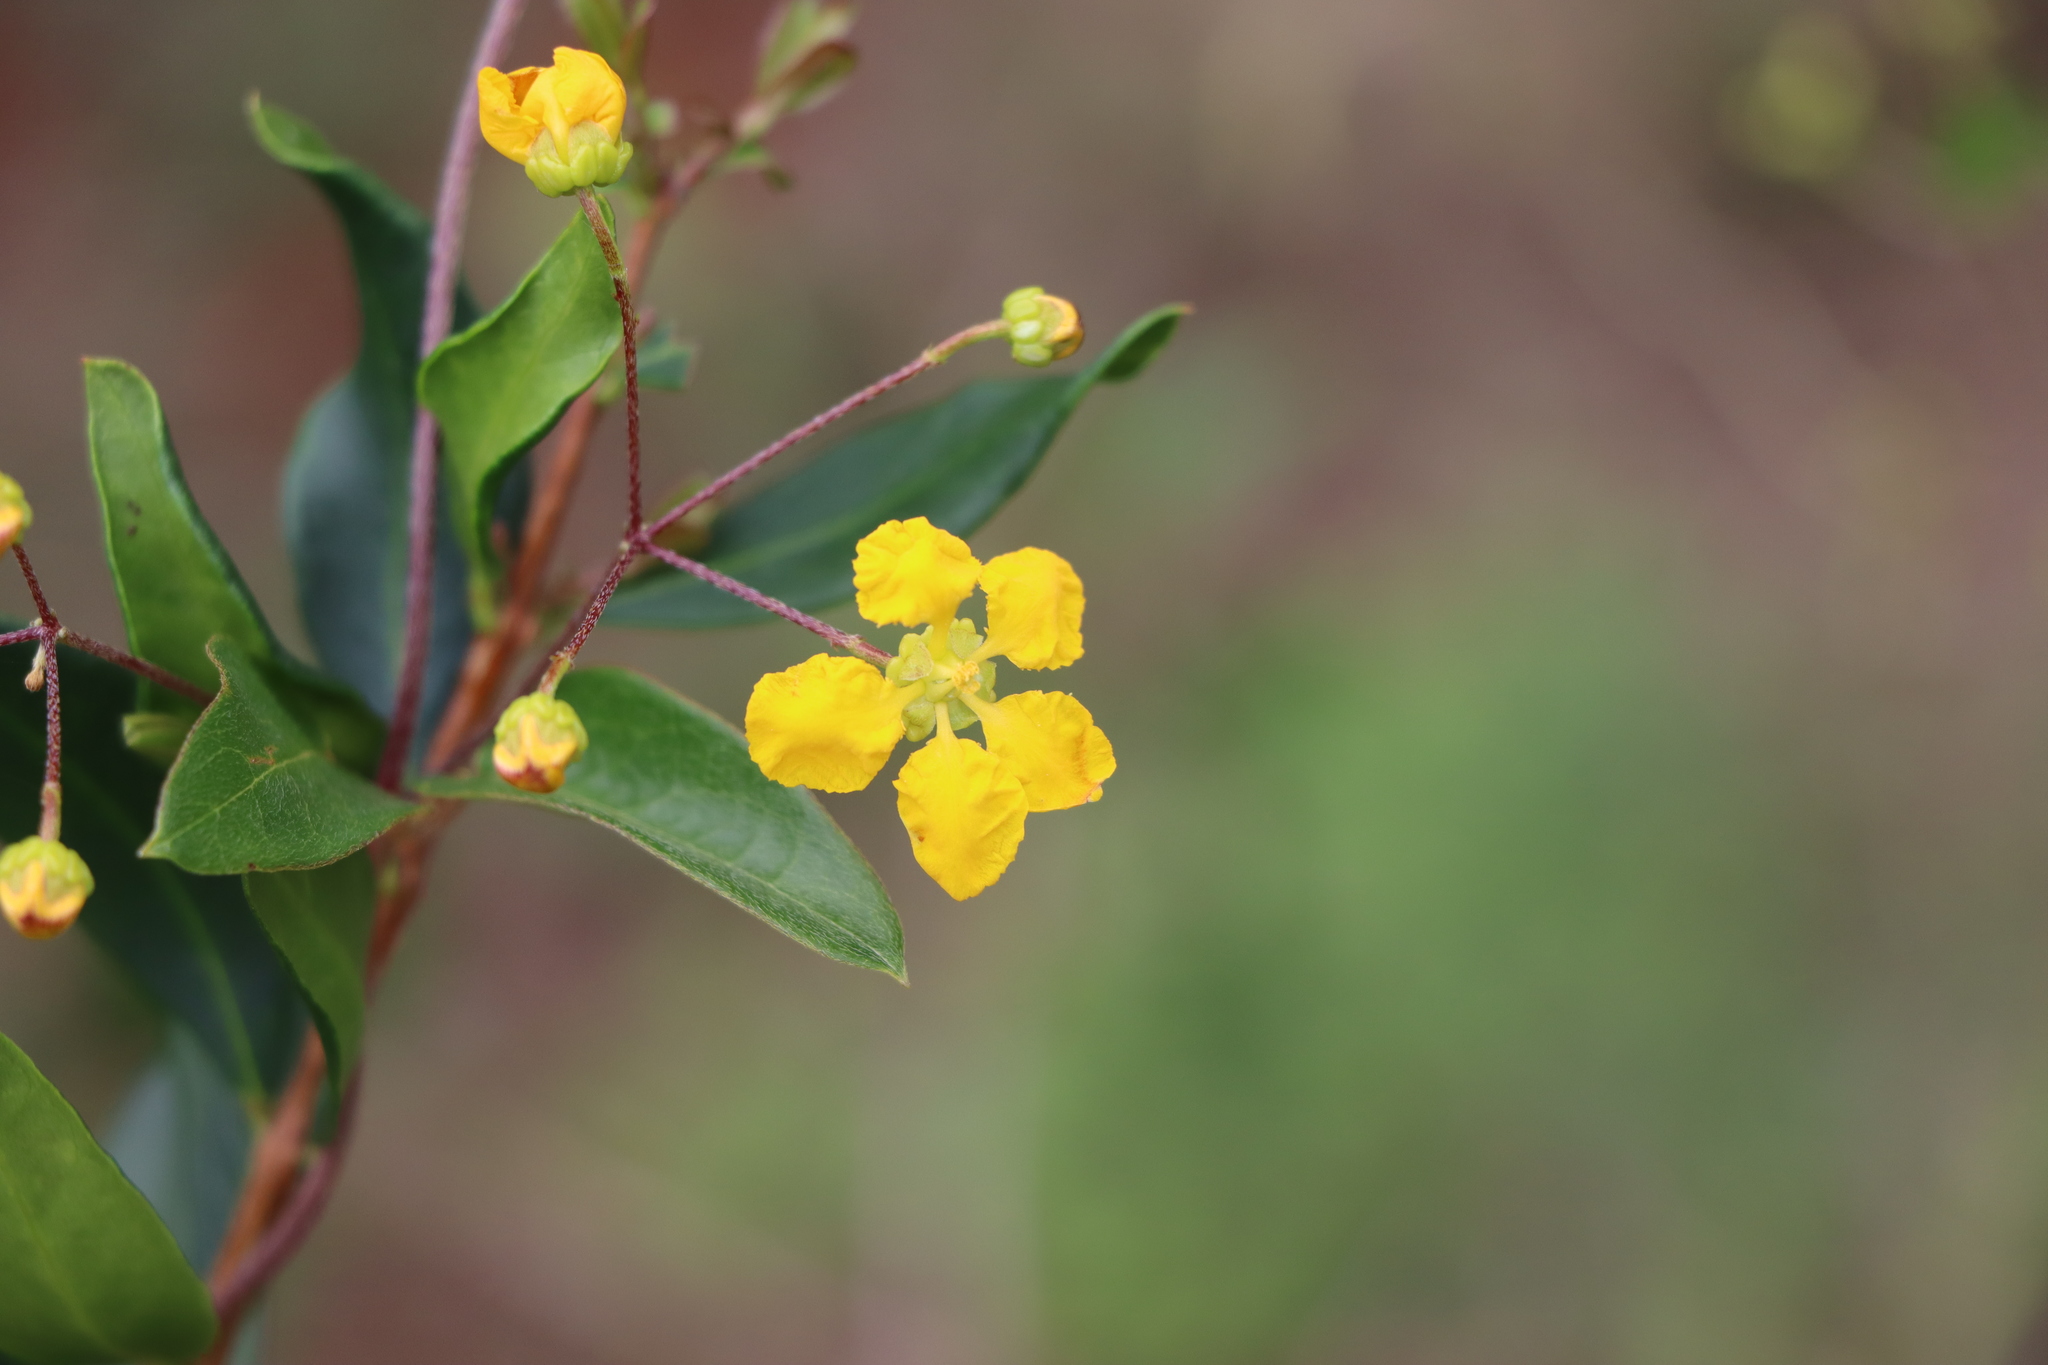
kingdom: Plantae
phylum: Tracheophyta
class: Magnoliopsida
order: Malpighiales
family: Malpighiaceae
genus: Janusia
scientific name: Janusia guaranitica
